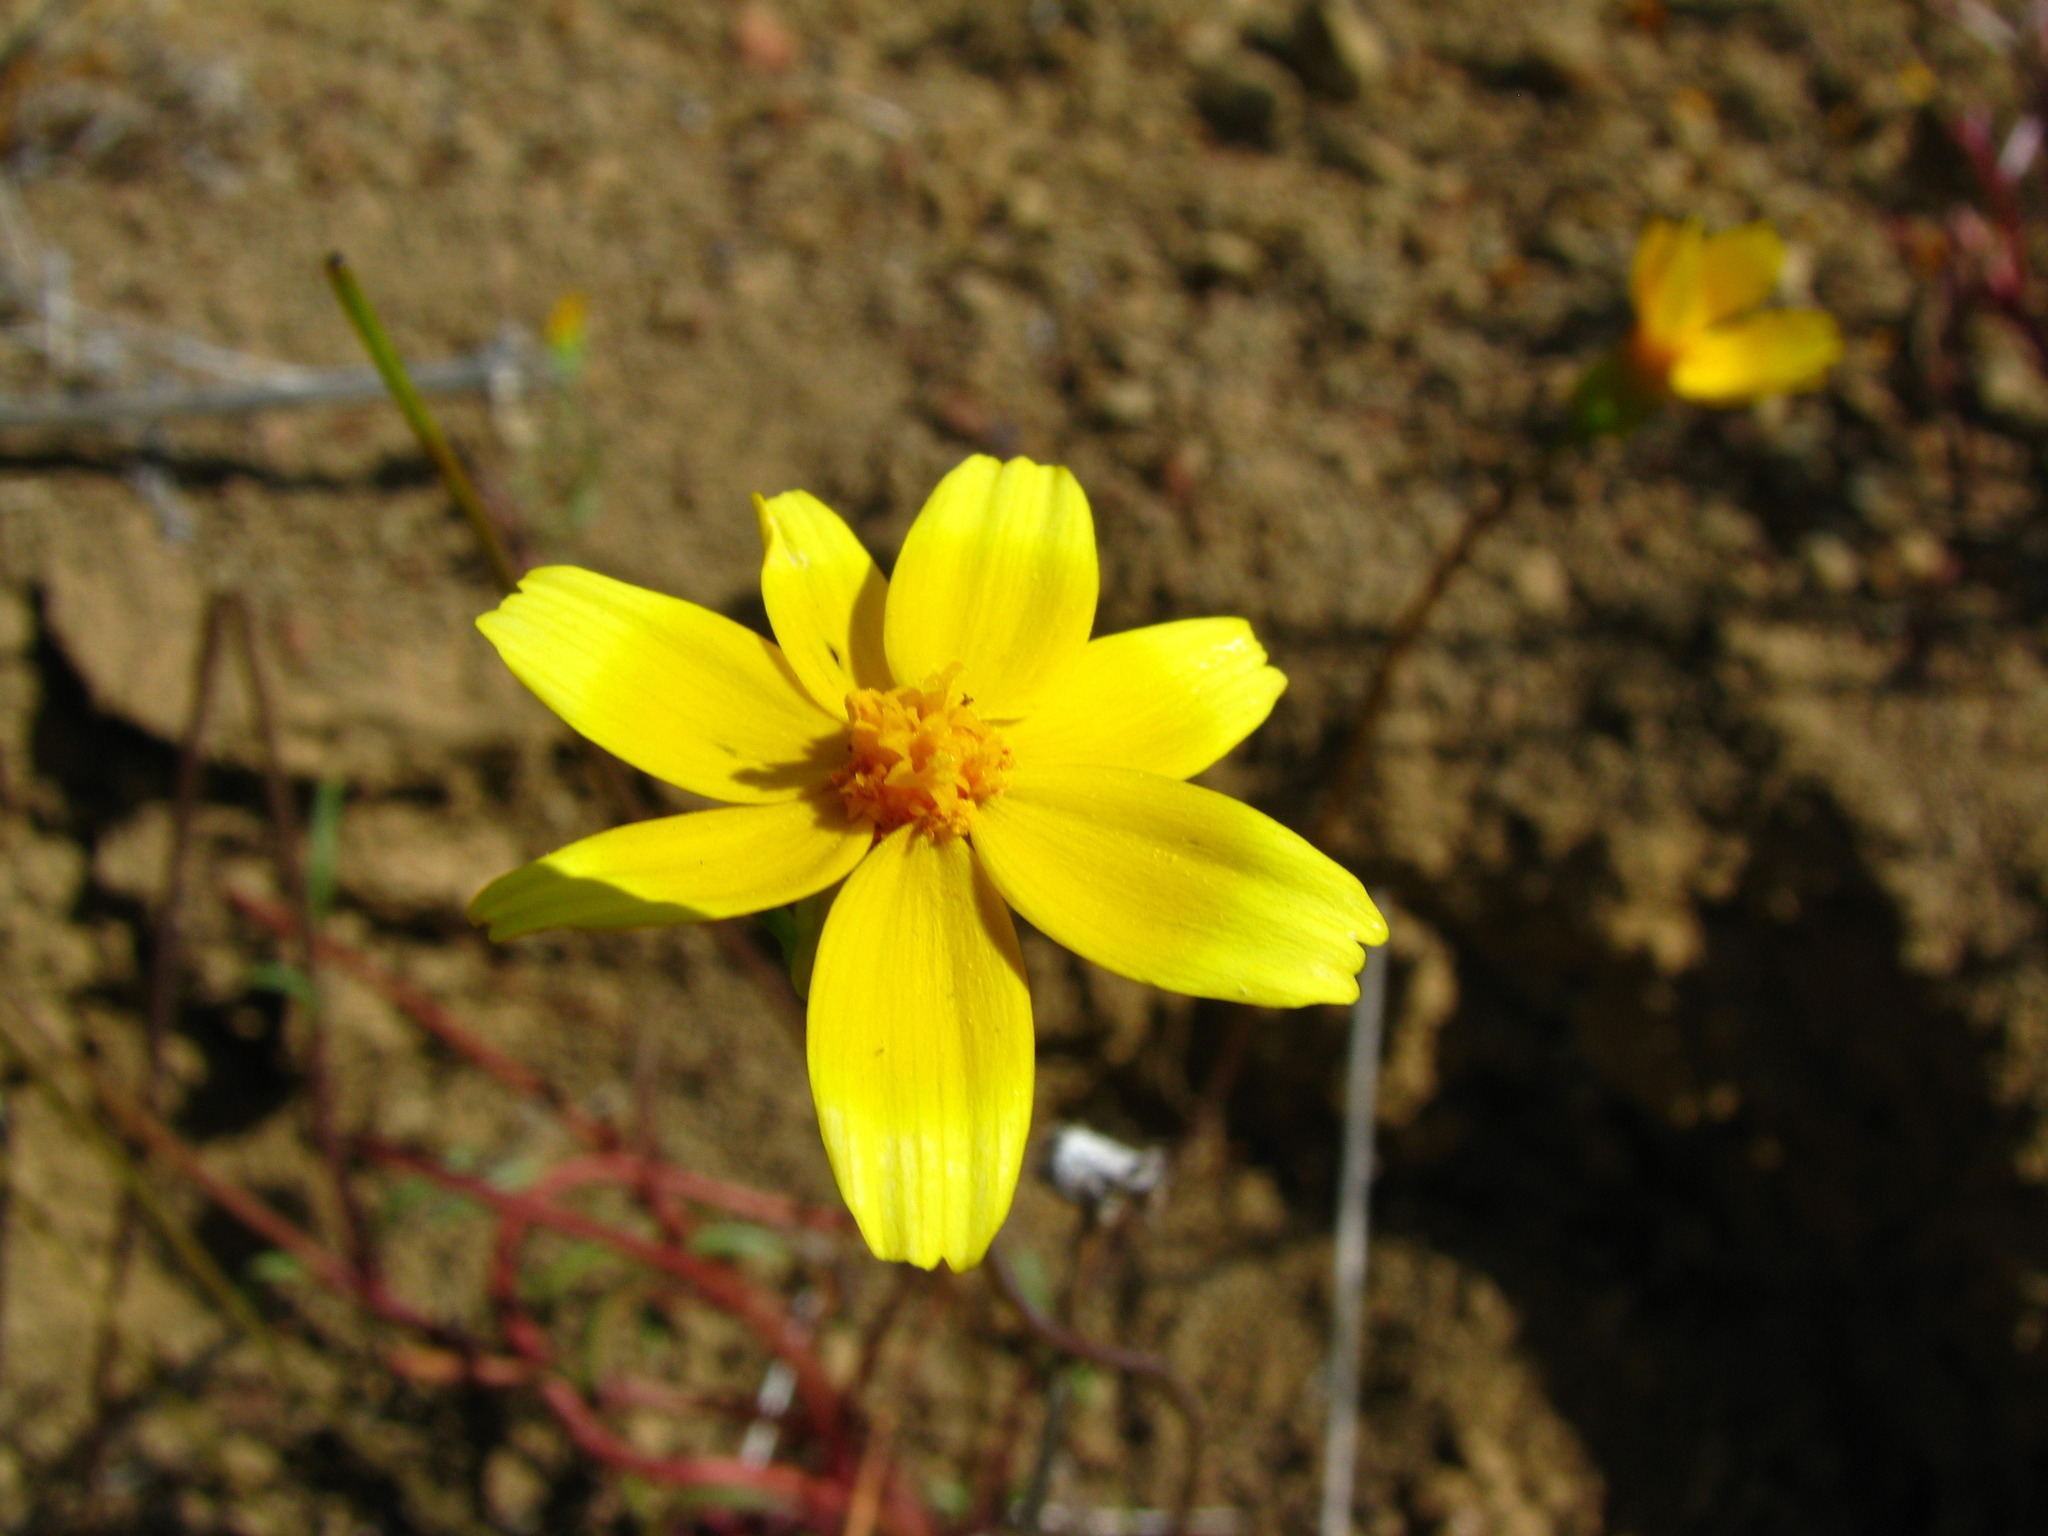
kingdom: Plantae
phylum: Tracheophyta
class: Magnoliopsida
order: Asterales
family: Asteraceae
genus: Coreopsis
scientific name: Coreopsis bigelovii
